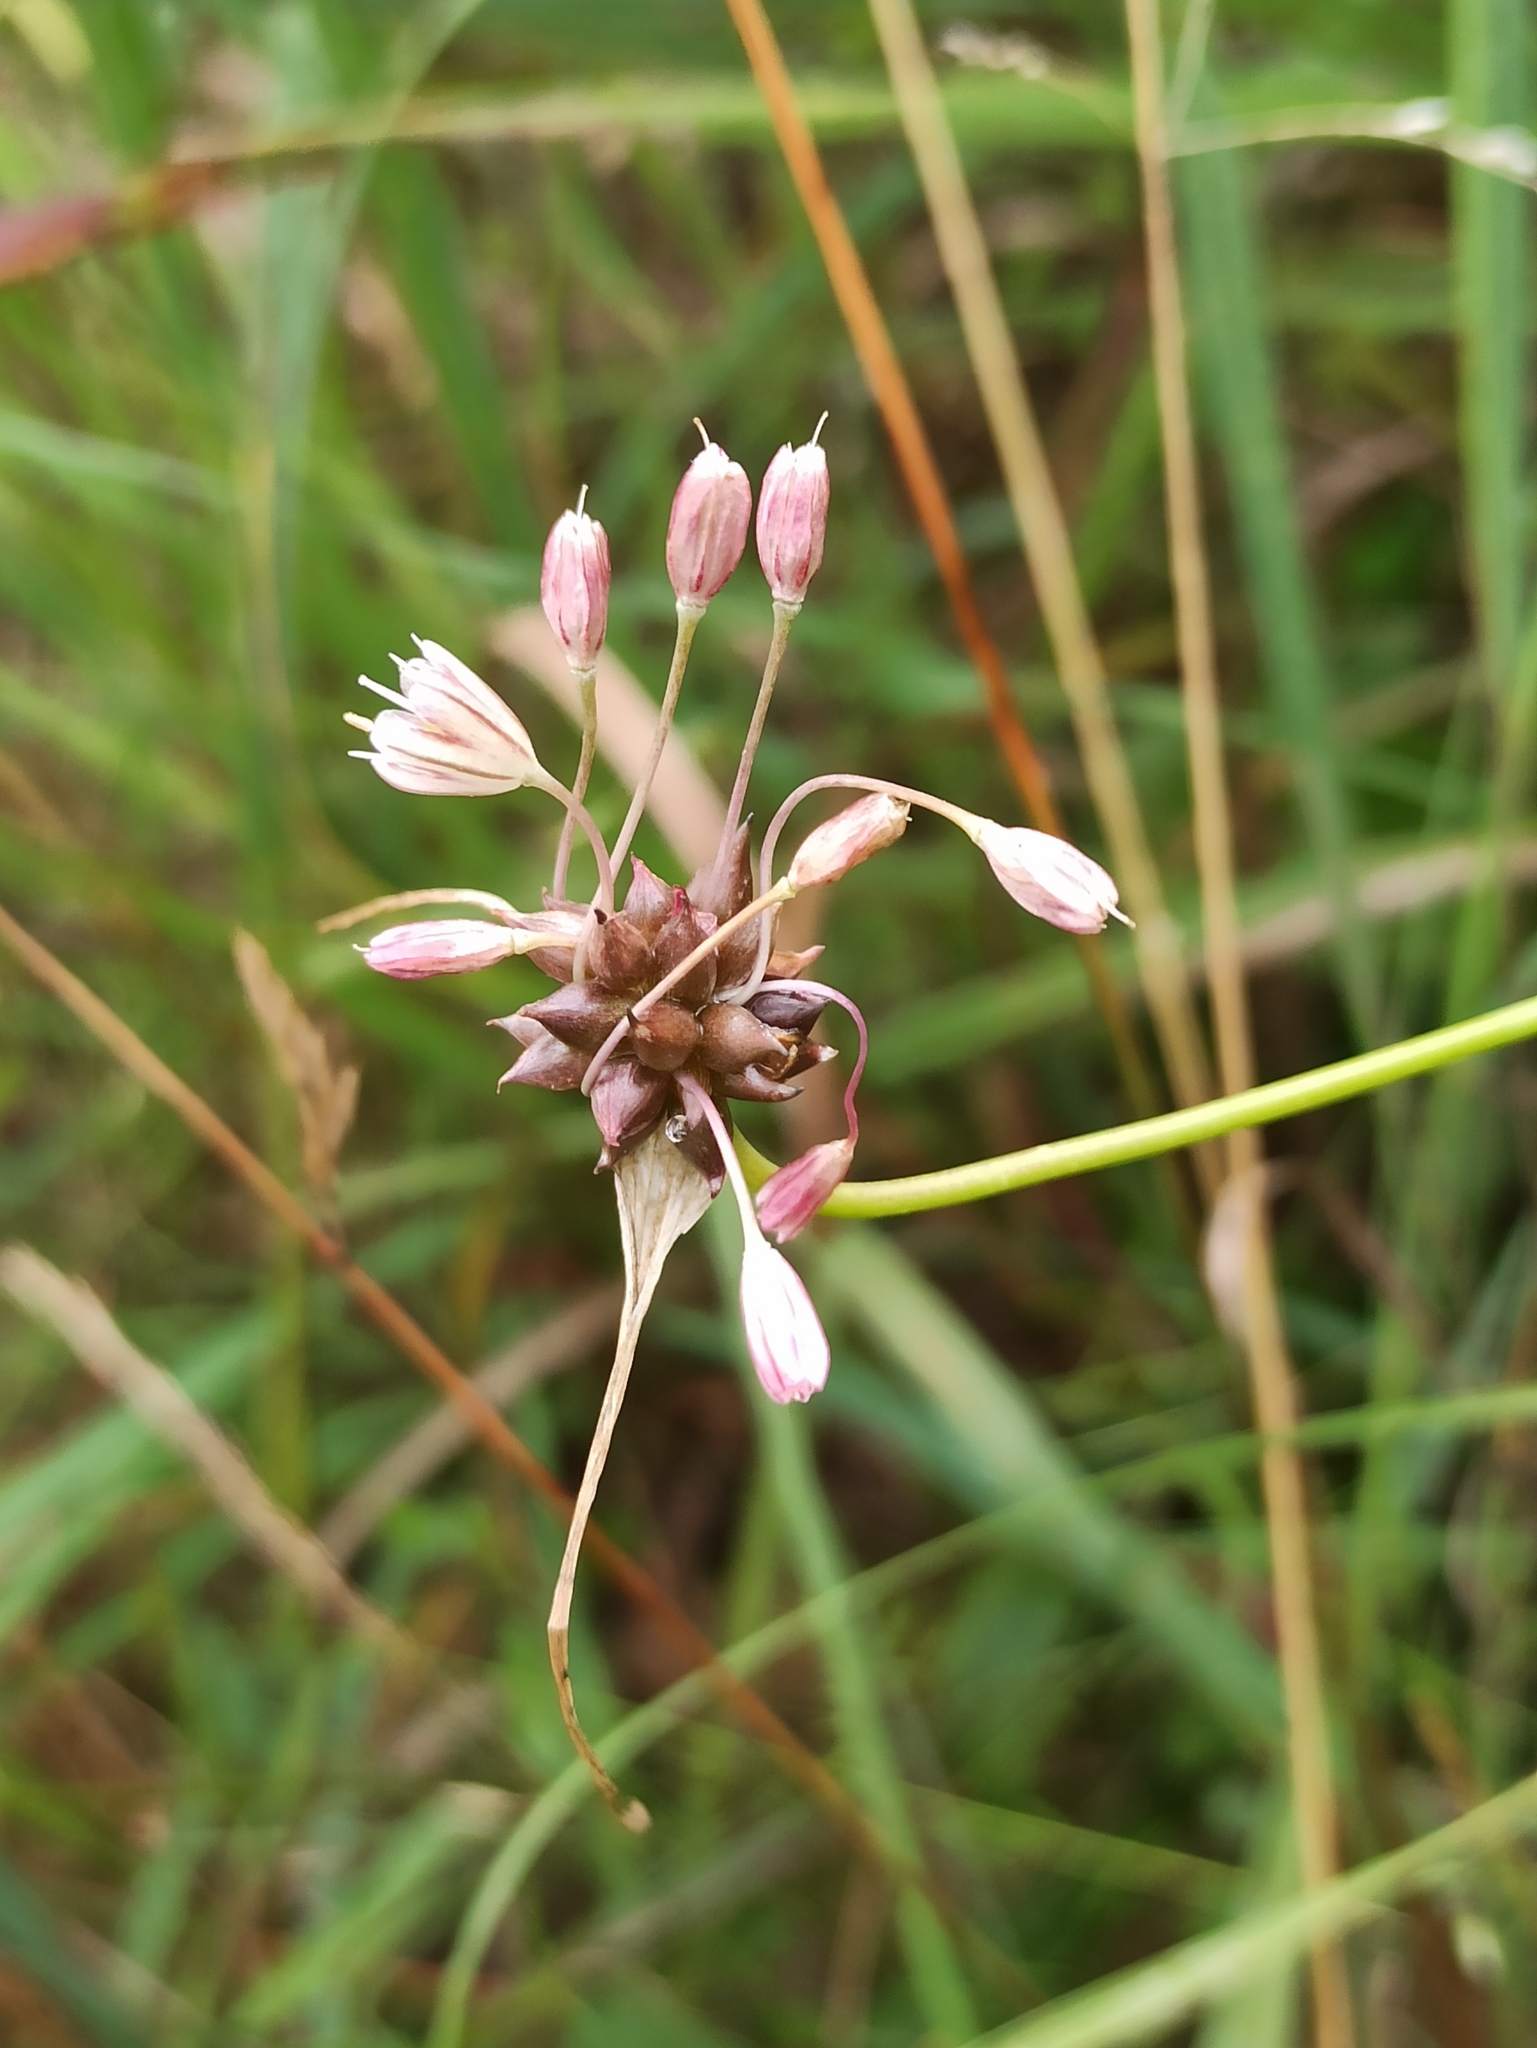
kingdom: Plantae
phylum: Tracheophyta
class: Liliopsida
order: Asparagales
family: Amaryllidaceae
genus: Allium
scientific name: Allium oleraceum
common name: Field garlic
